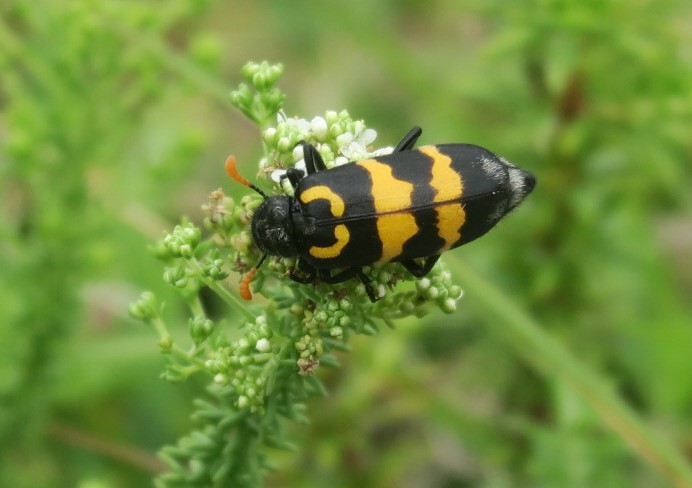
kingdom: Animalia
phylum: Arthropoda
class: Insecta
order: Coleoptera
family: Meloidae
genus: Meloe
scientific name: Meloe lunata
